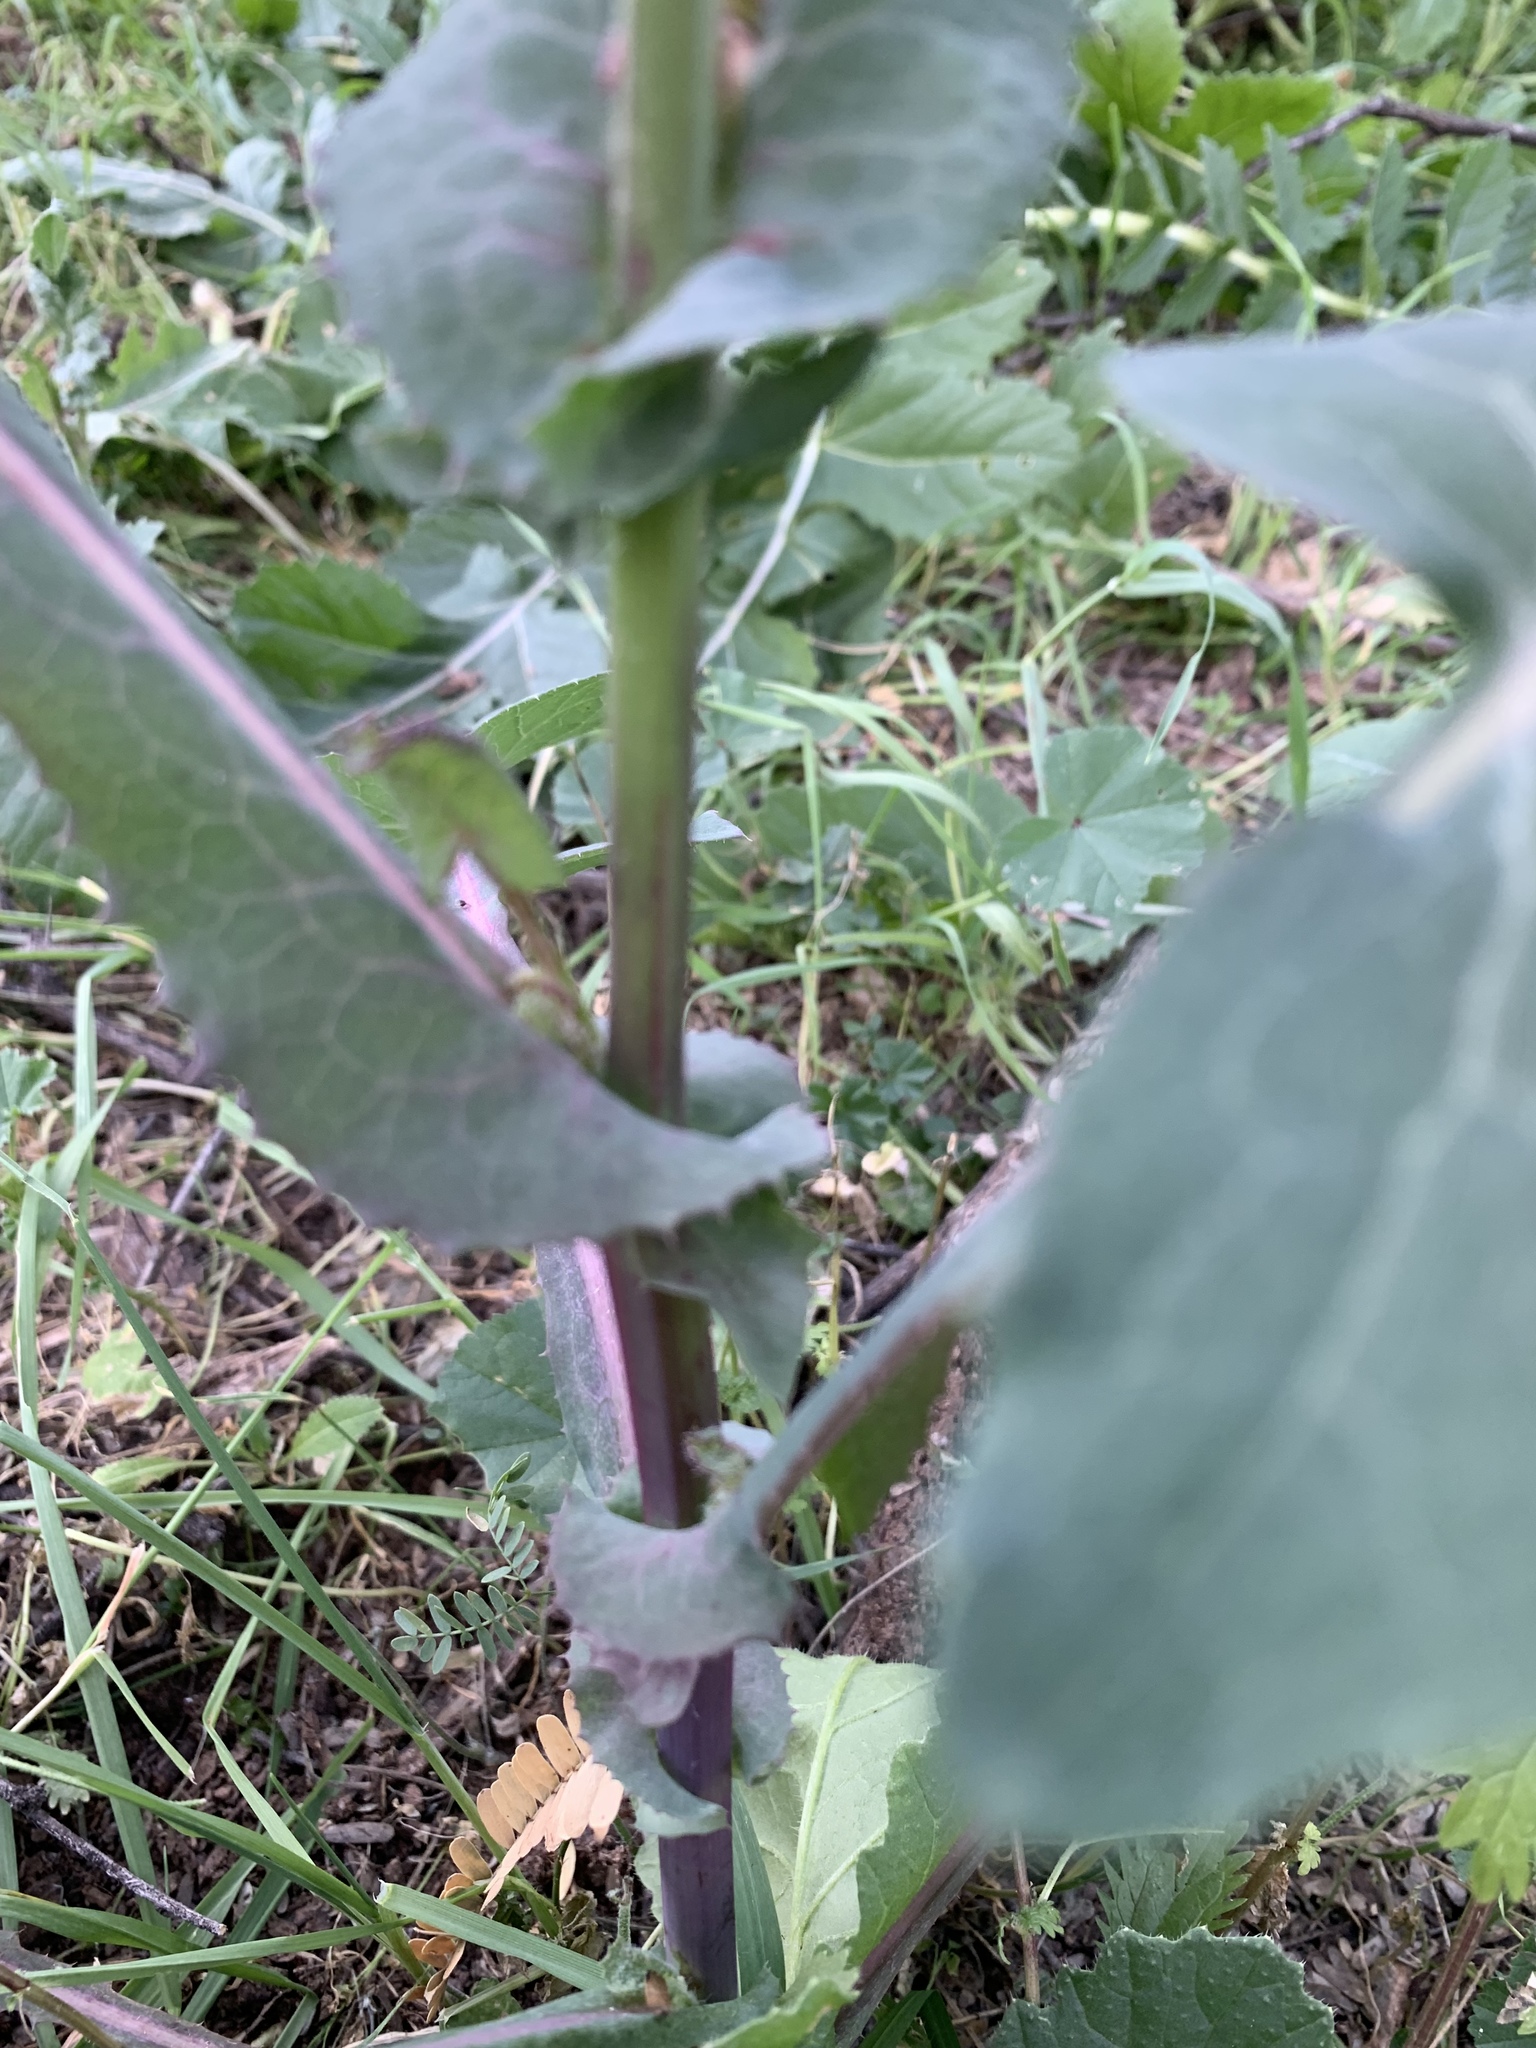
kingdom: Plantae
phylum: Tracheophyta
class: Magnoliopsida
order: Asterales
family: Asteraceae
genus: Sonchus
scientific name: Sonchus oleraceus
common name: Common sowthistle
